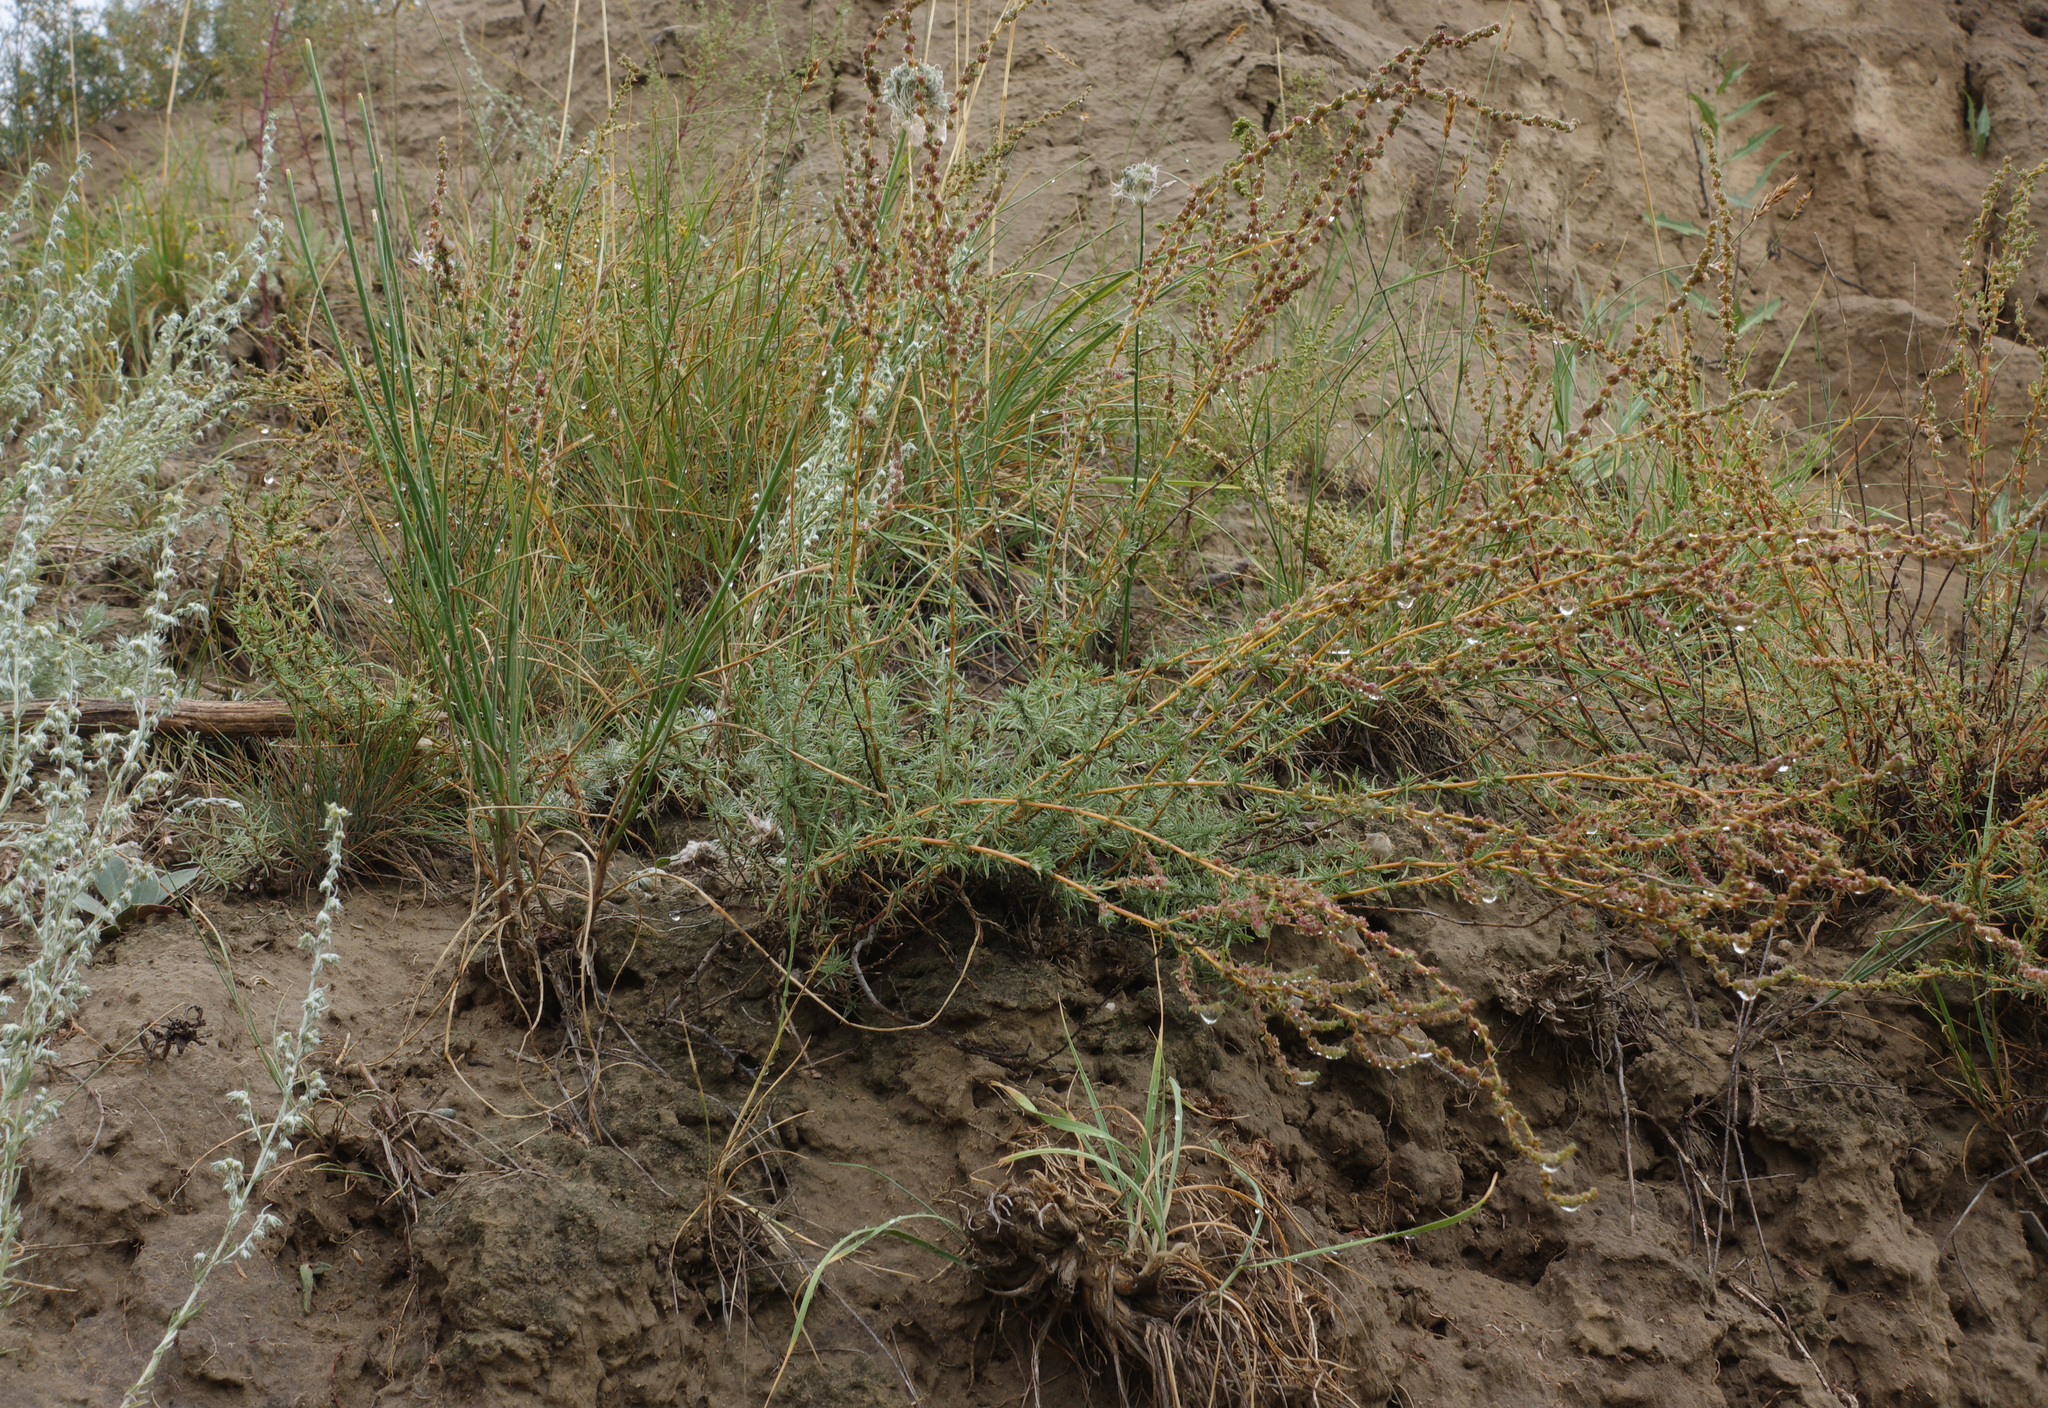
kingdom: Plantae
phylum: Tracheophyta
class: Magnoliopsida
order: Caryophyllales
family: Amaranthaceae
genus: Bassia
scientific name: Bassia prostrata
